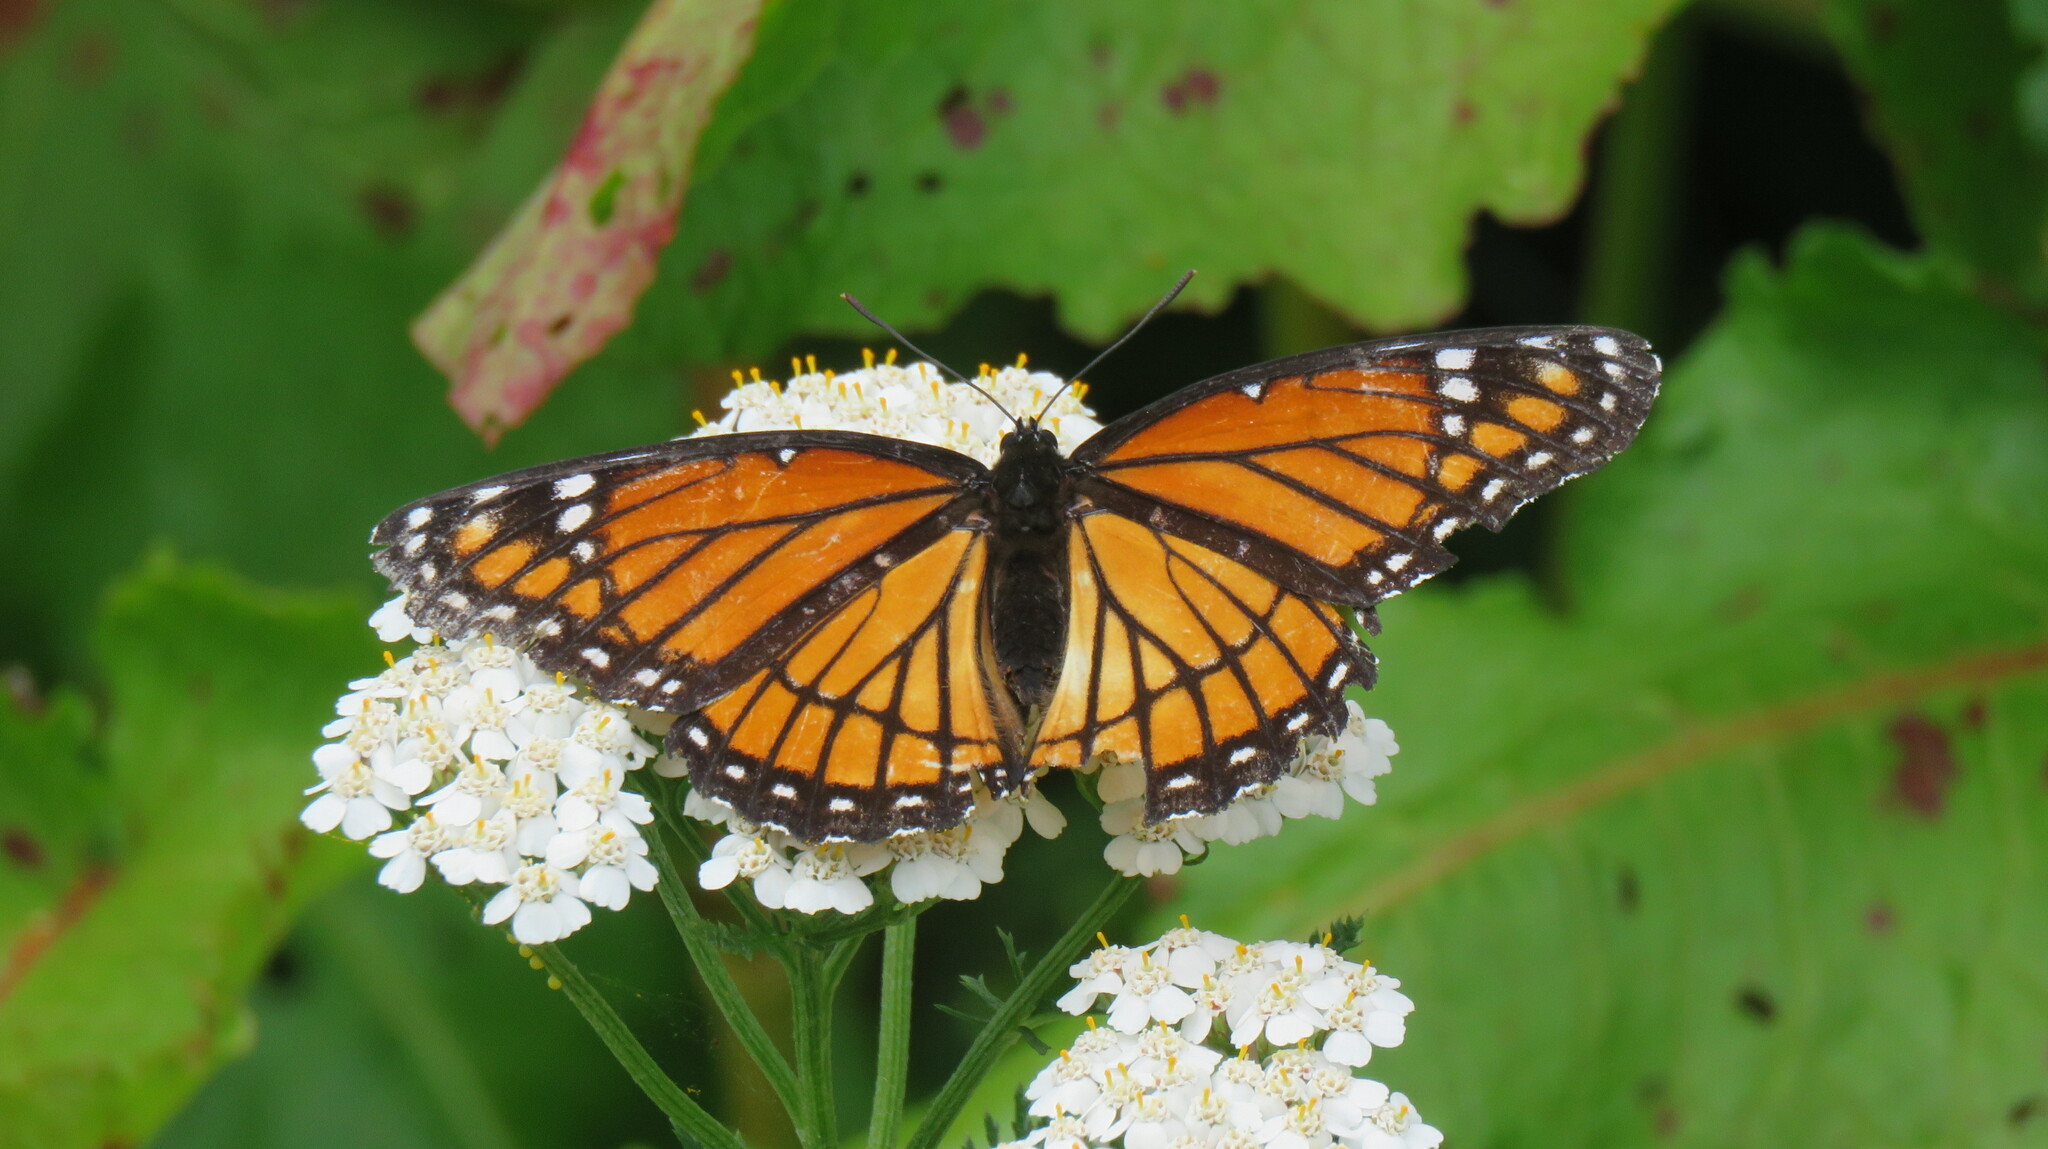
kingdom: Animalia
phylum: Arthropoda
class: Insecta
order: Lepidoptera
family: Nymphalidae
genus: Limenitis
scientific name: Limenitis archippus
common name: Viceroy
